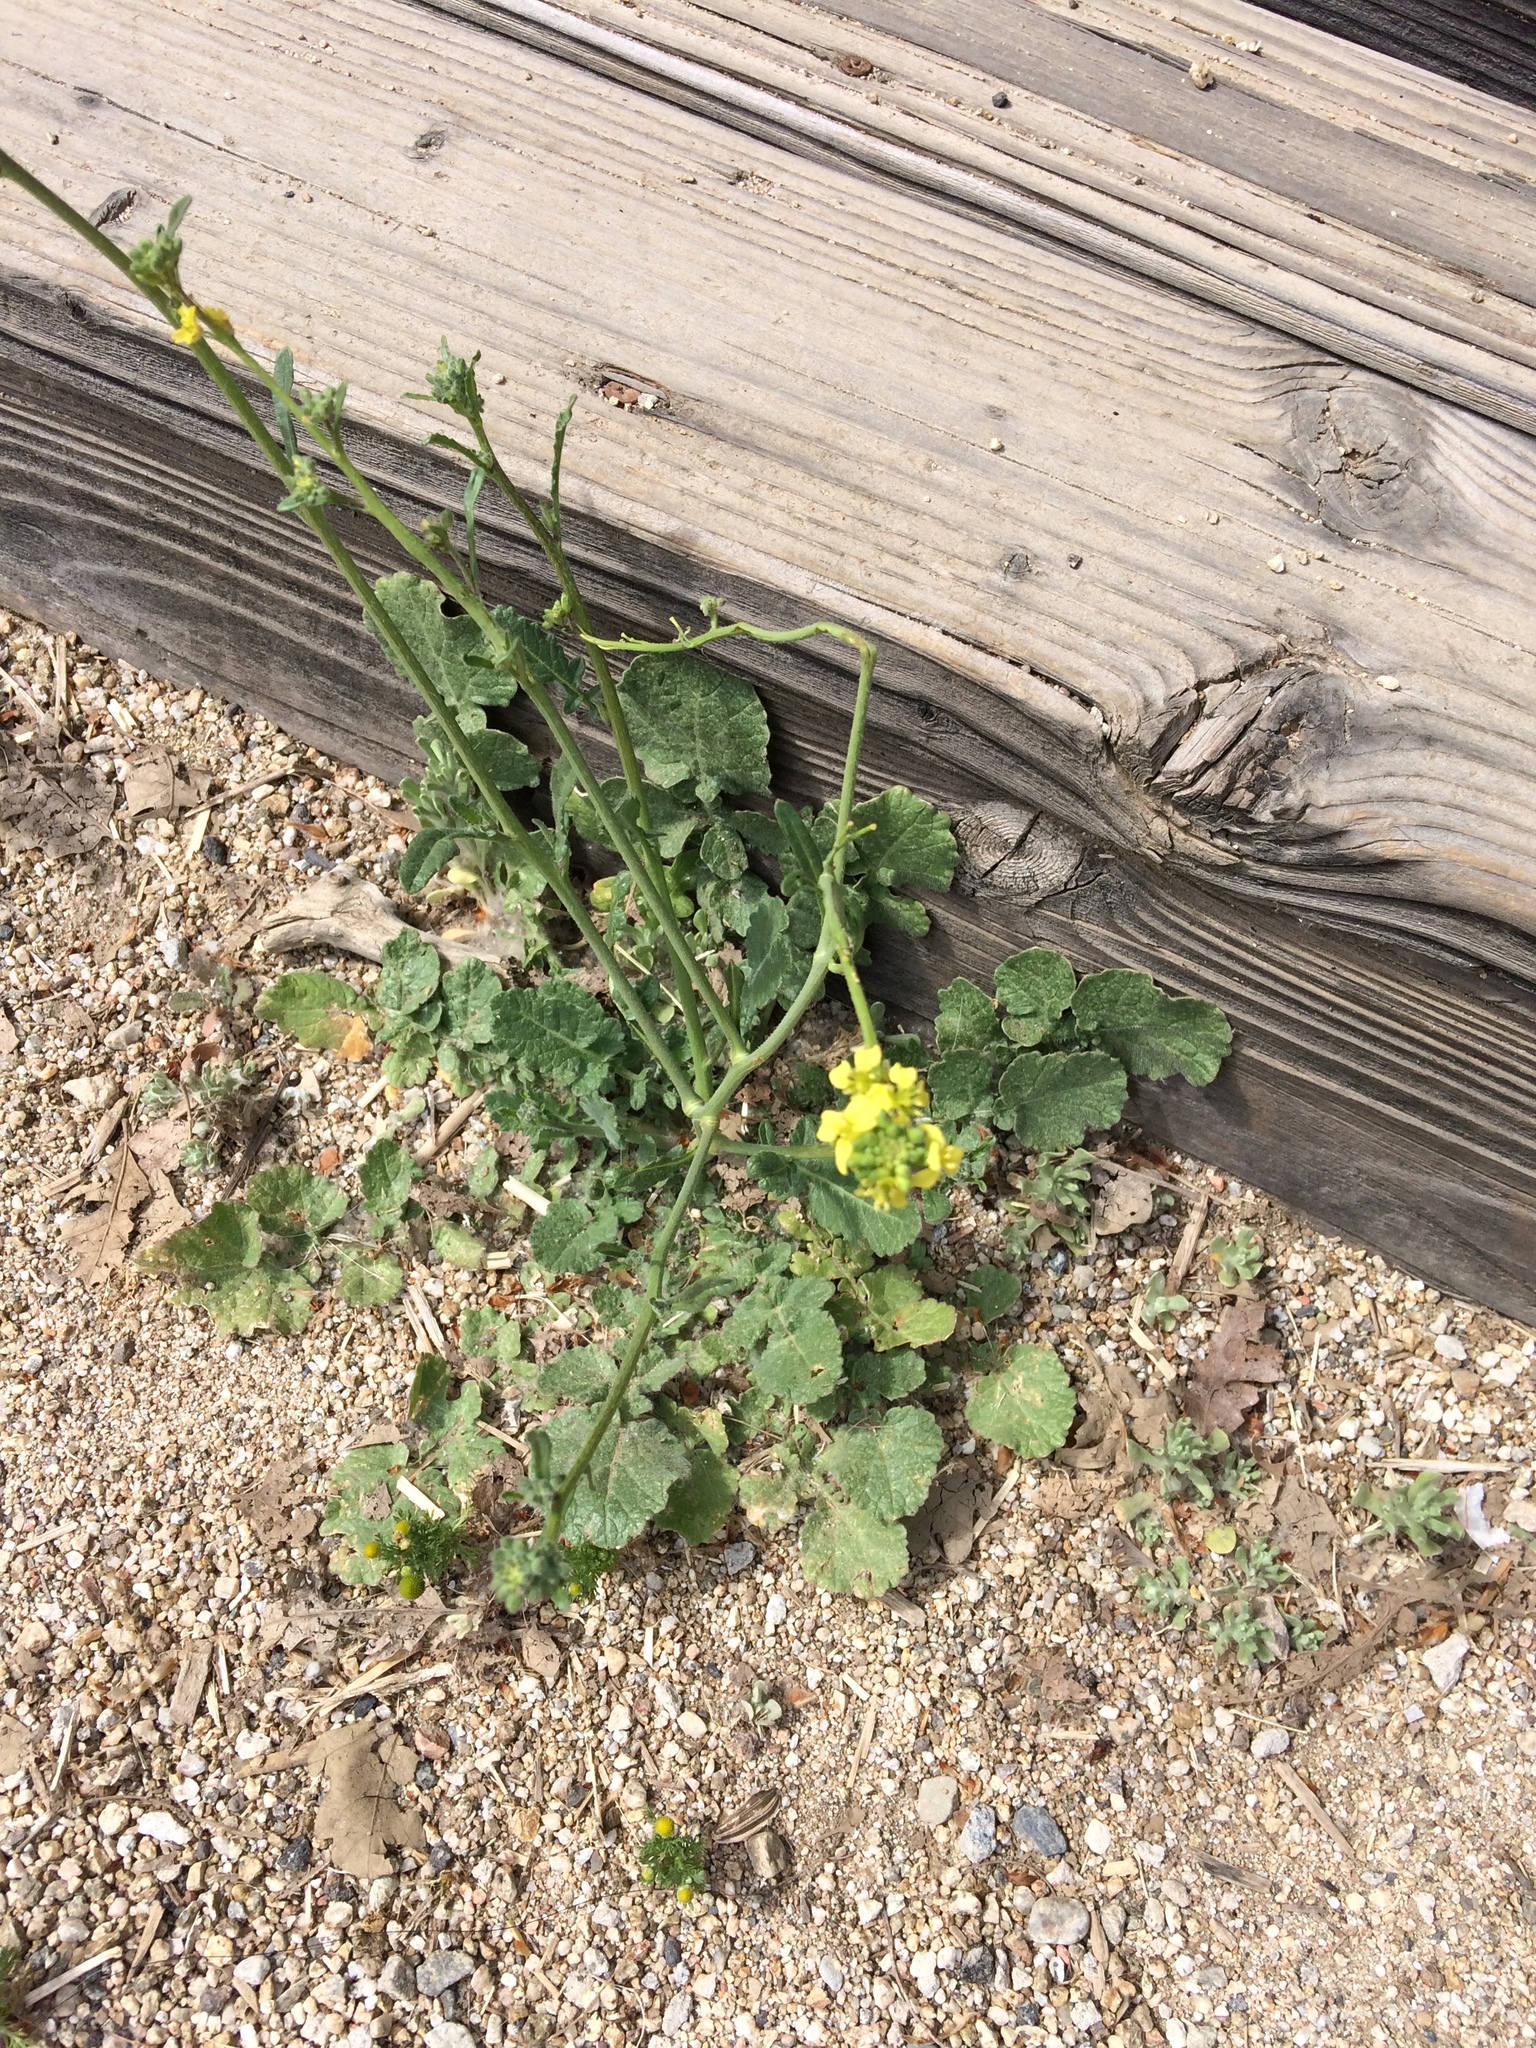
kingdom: Plantae
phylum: Tracheophyta
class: Magnoliopsida
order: Brassicales
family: Brassicaceae
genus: Hirschfeldia
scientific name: Hirschfeldia incana
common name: Hoary mustard
